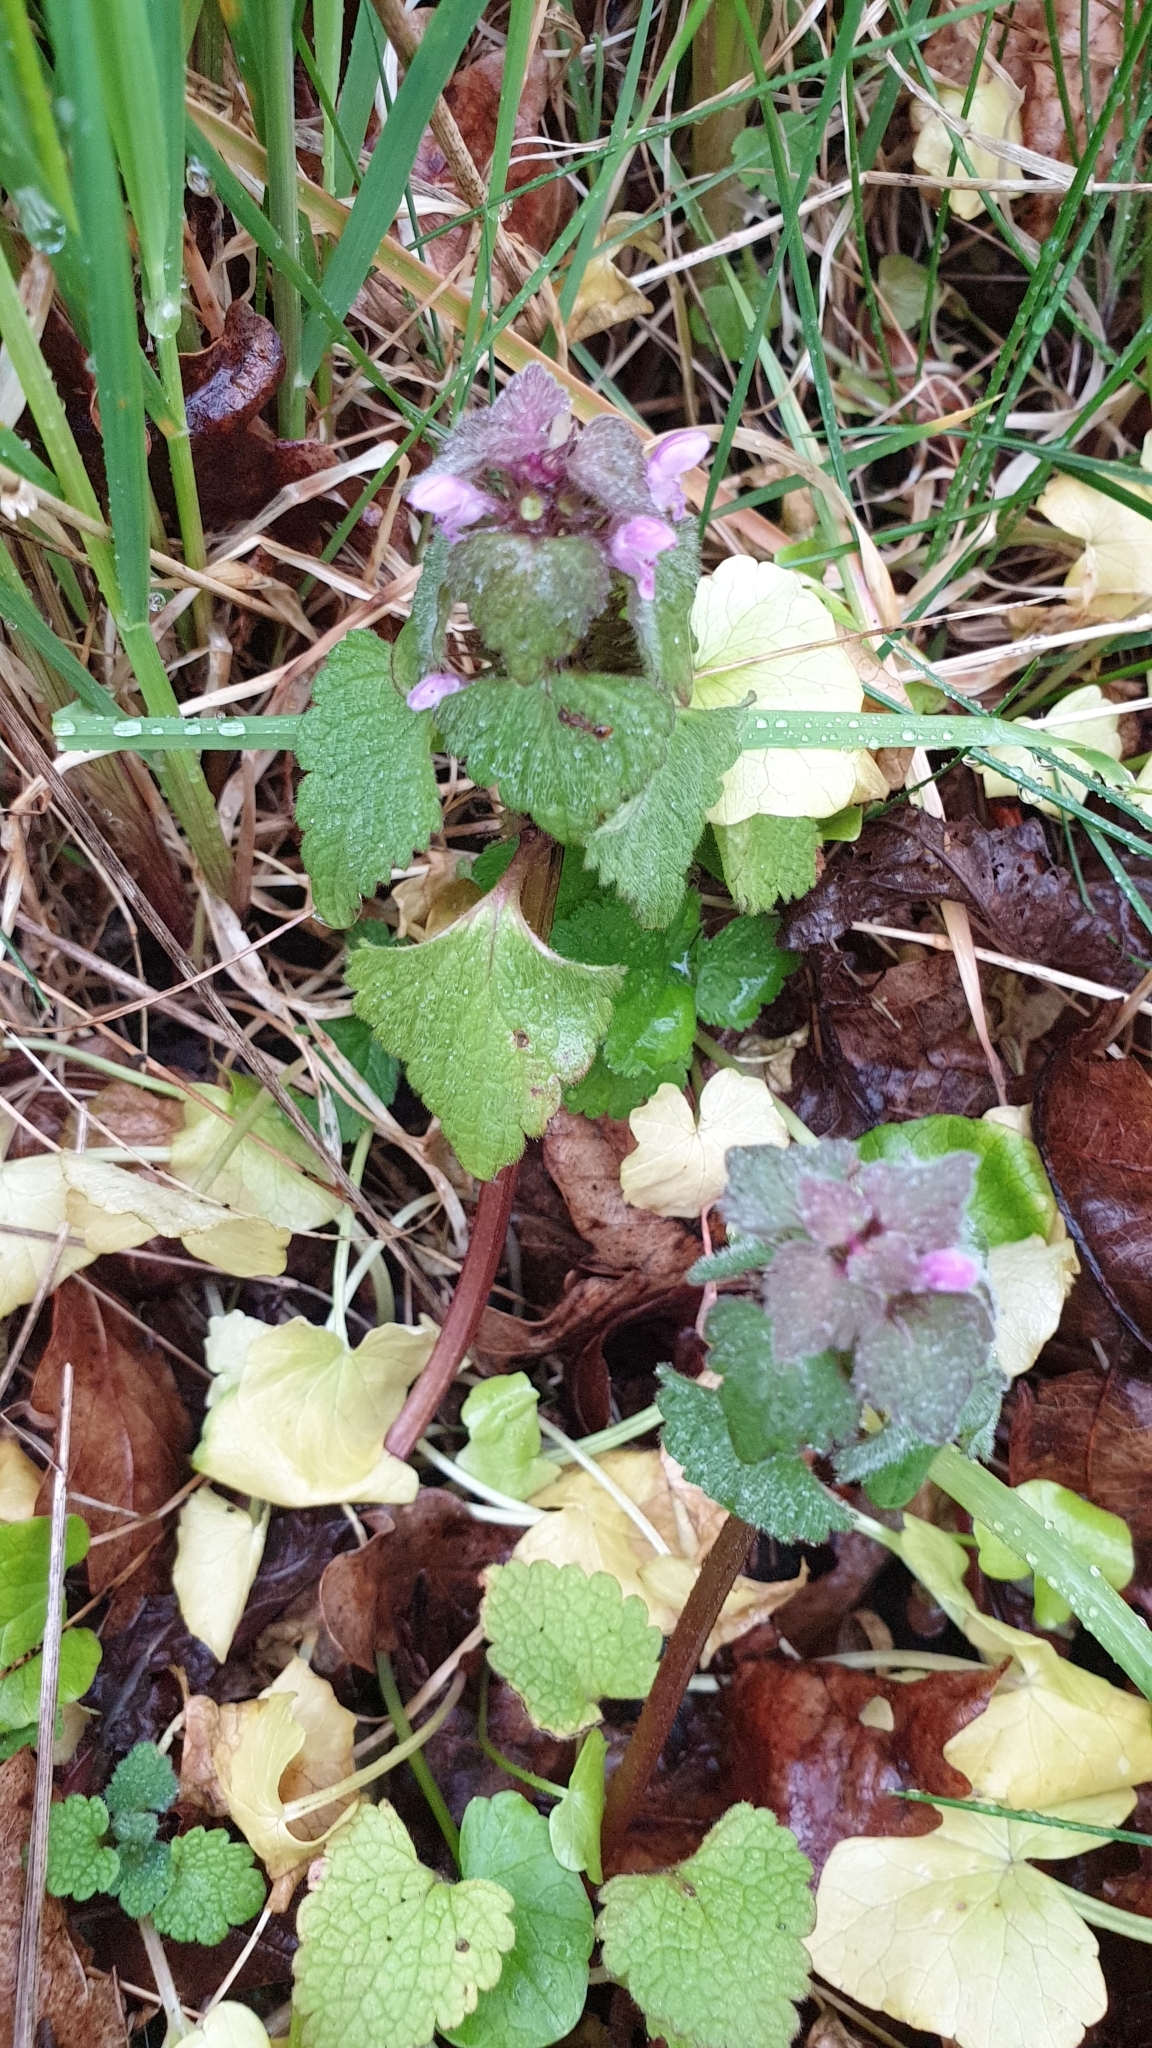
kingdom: Plantae
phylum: Tracheophyta
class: Magnoliopsida
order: Lamiales
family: Lamiaceae
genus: Lamium
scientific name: Lamium purpureum
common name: Red dead-nettle
